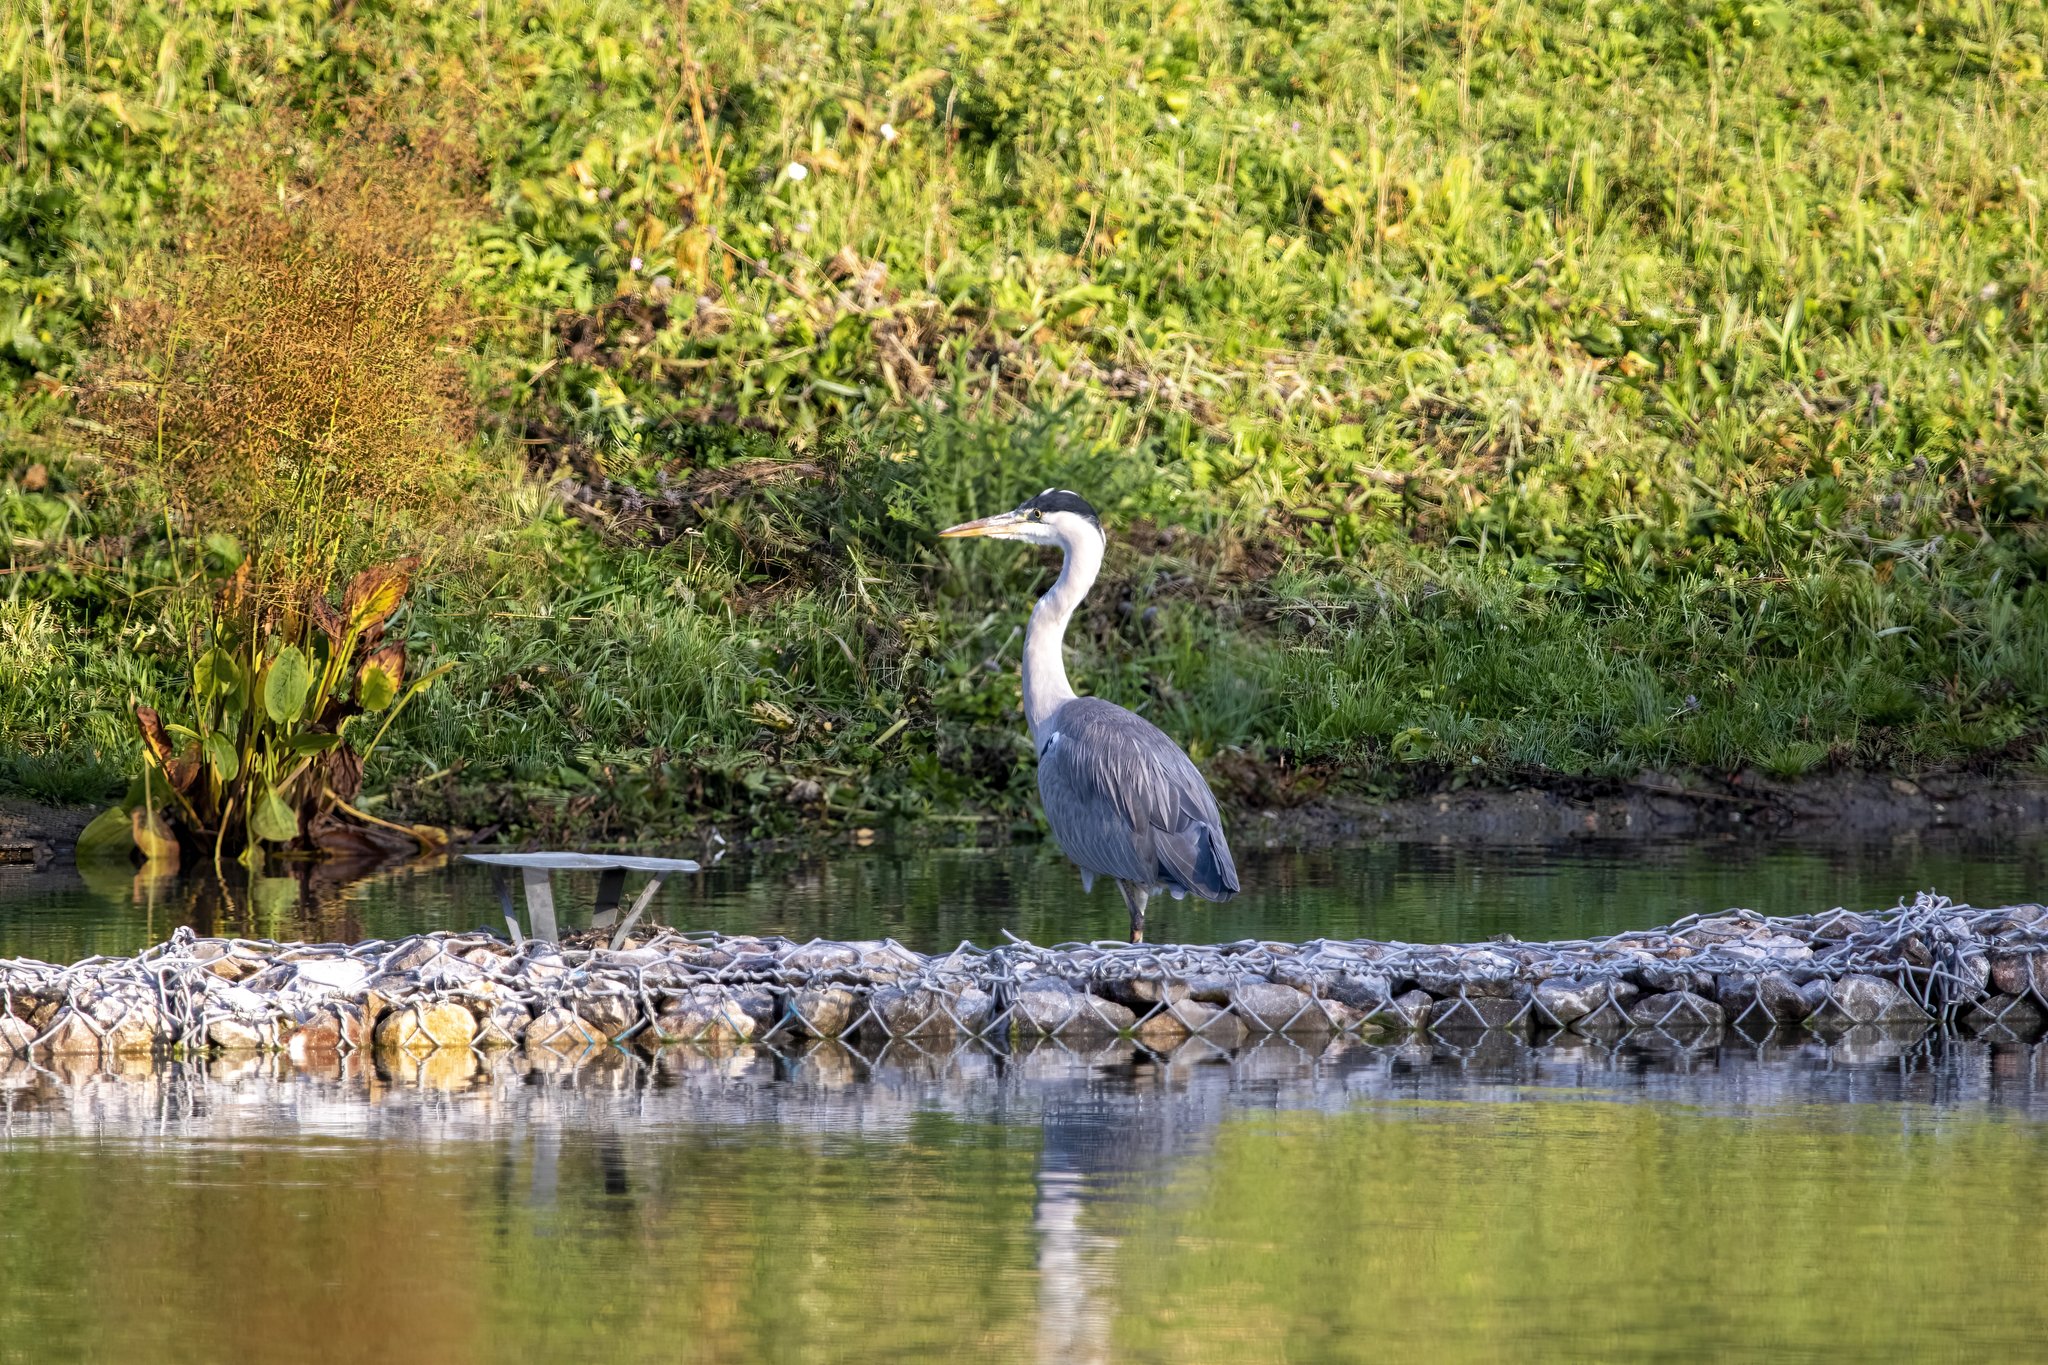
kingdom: Animalia
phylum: Chordata
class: Aves
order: Pelecaniformes
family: Ardeidae
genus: Ardea
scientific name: Ardea cinerea
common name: Grey heron
